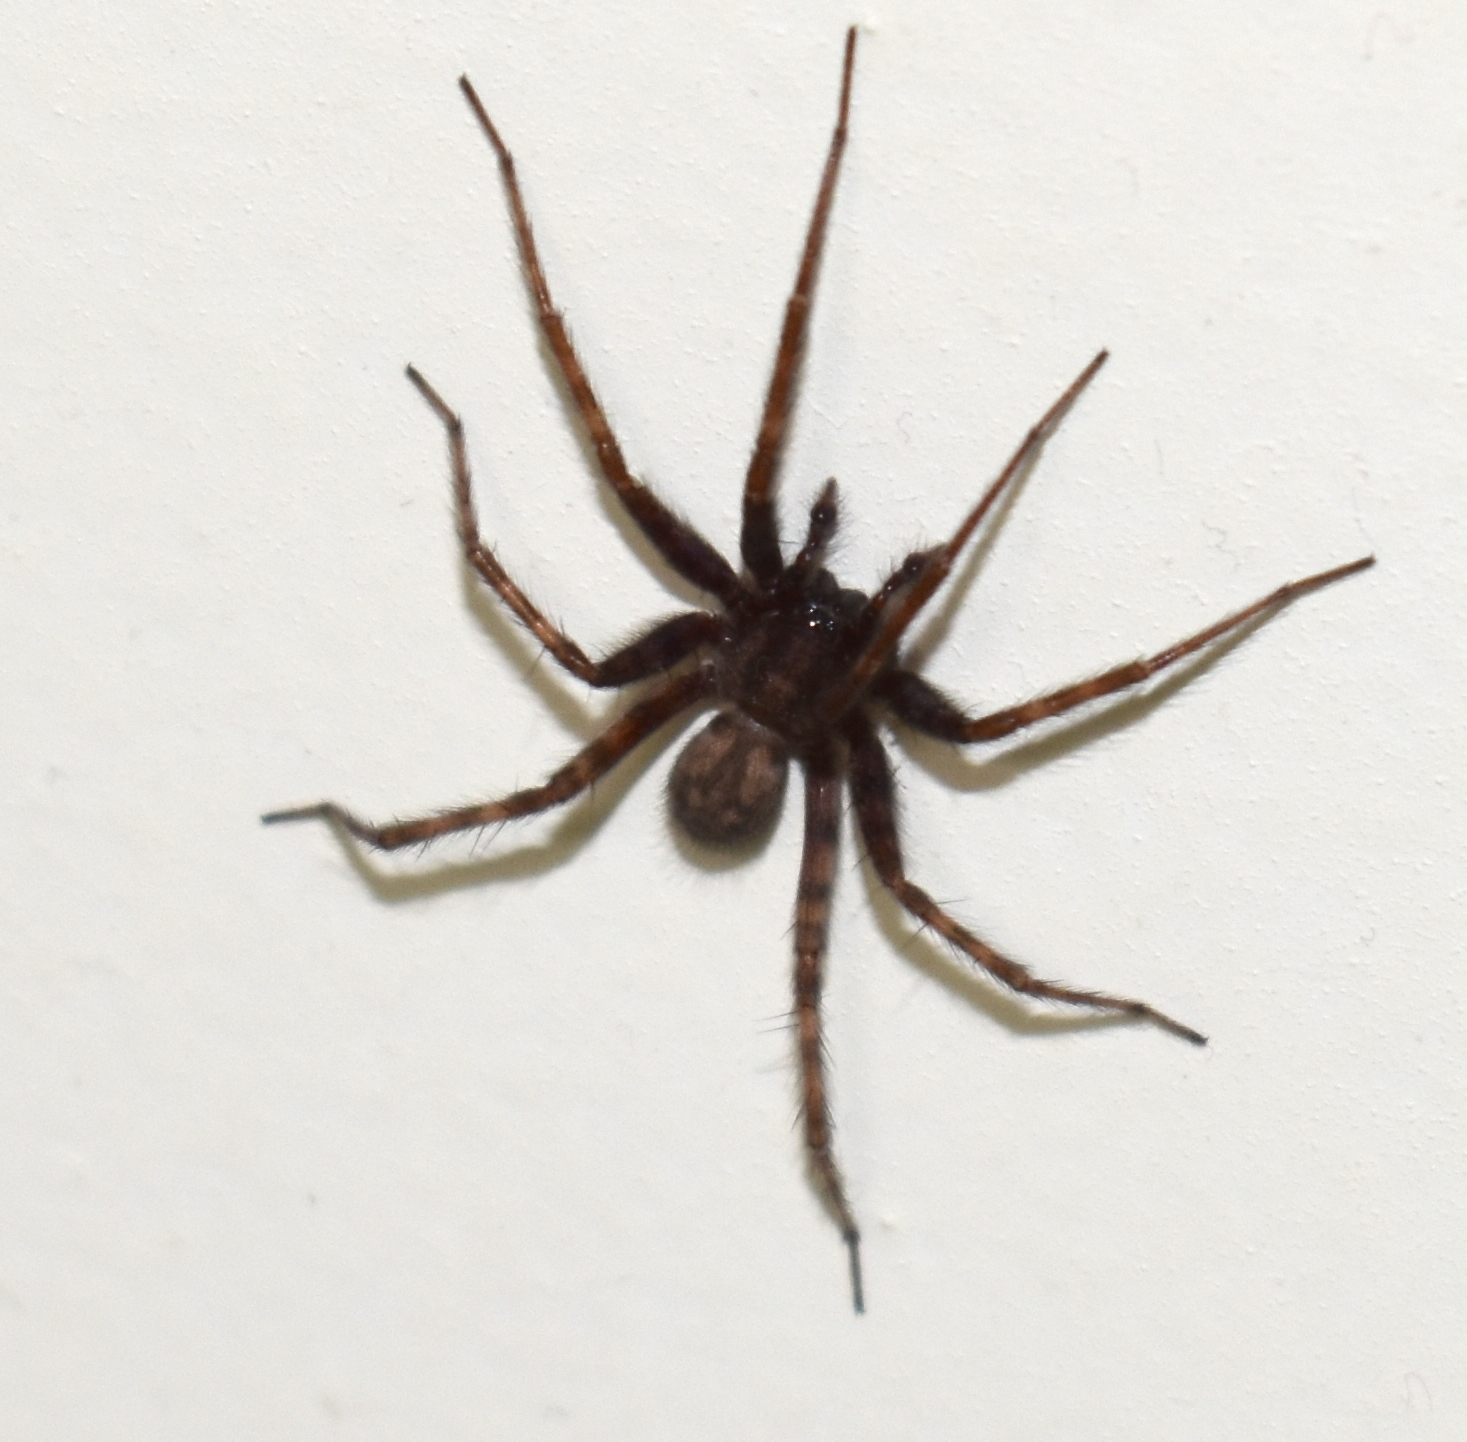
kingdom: Animalia
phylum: Arthropoda
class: Arachnida
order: Araneae
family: Agelenidae
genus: Tegenaria
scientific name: Tegenaria domestica
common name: Barn funnel weaver
